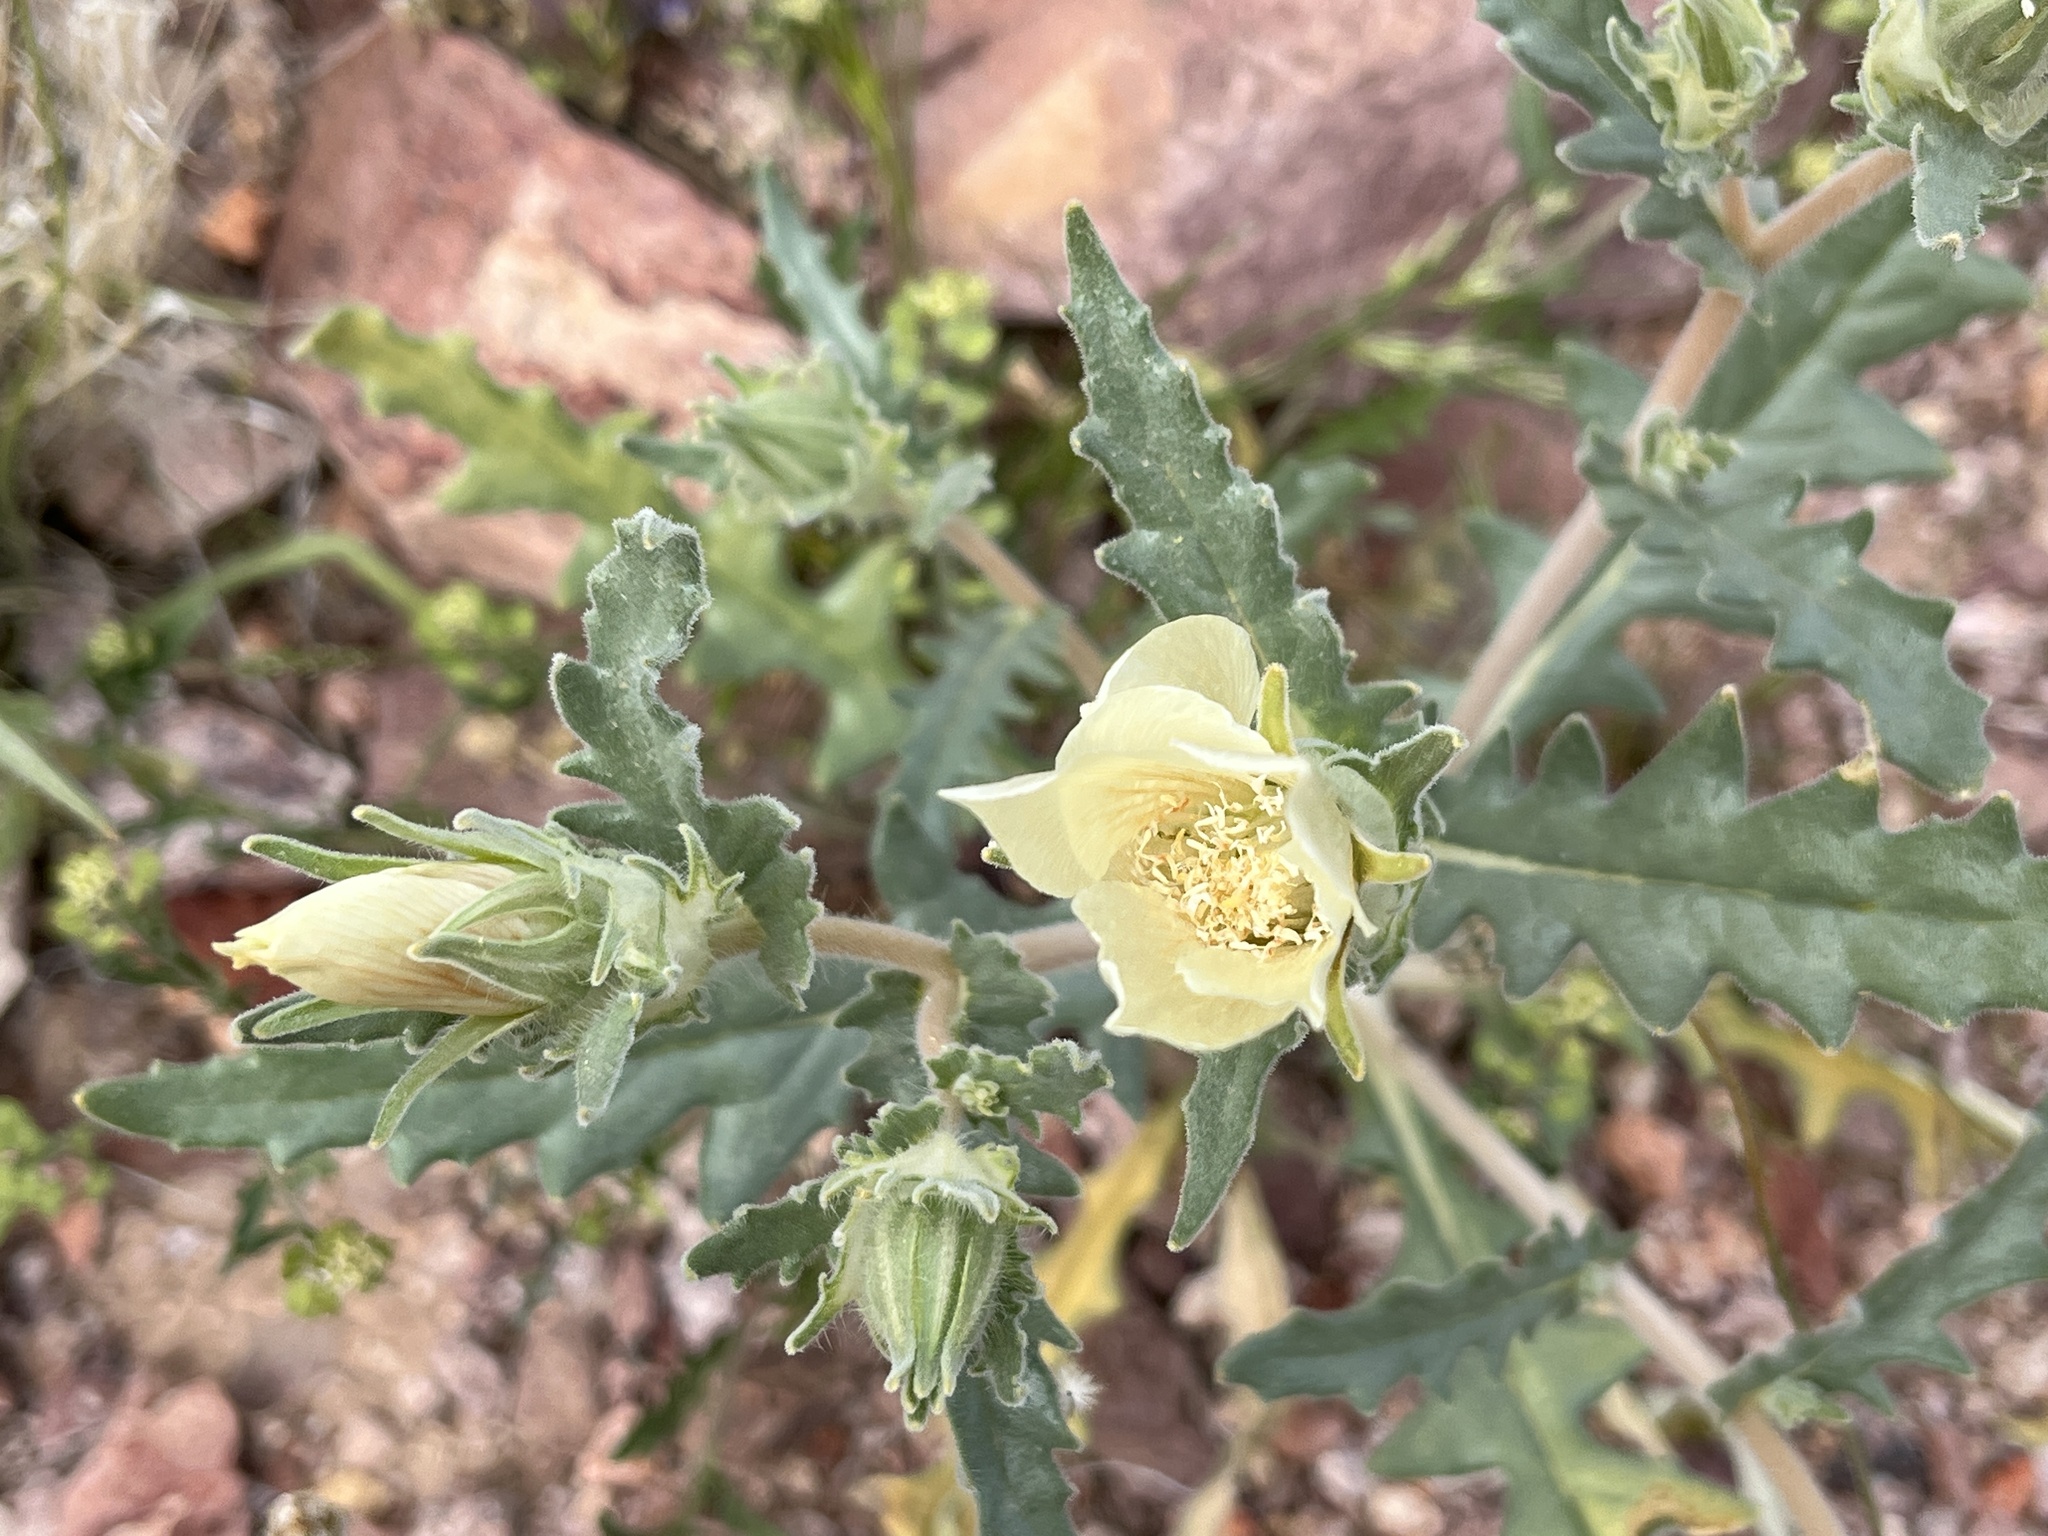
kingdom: Plantae
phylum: Tracheophyta
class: Magnoliopsida
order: Cornales
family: Loasaceae
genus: Mentzelia
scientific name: Mentzelia involucrata
